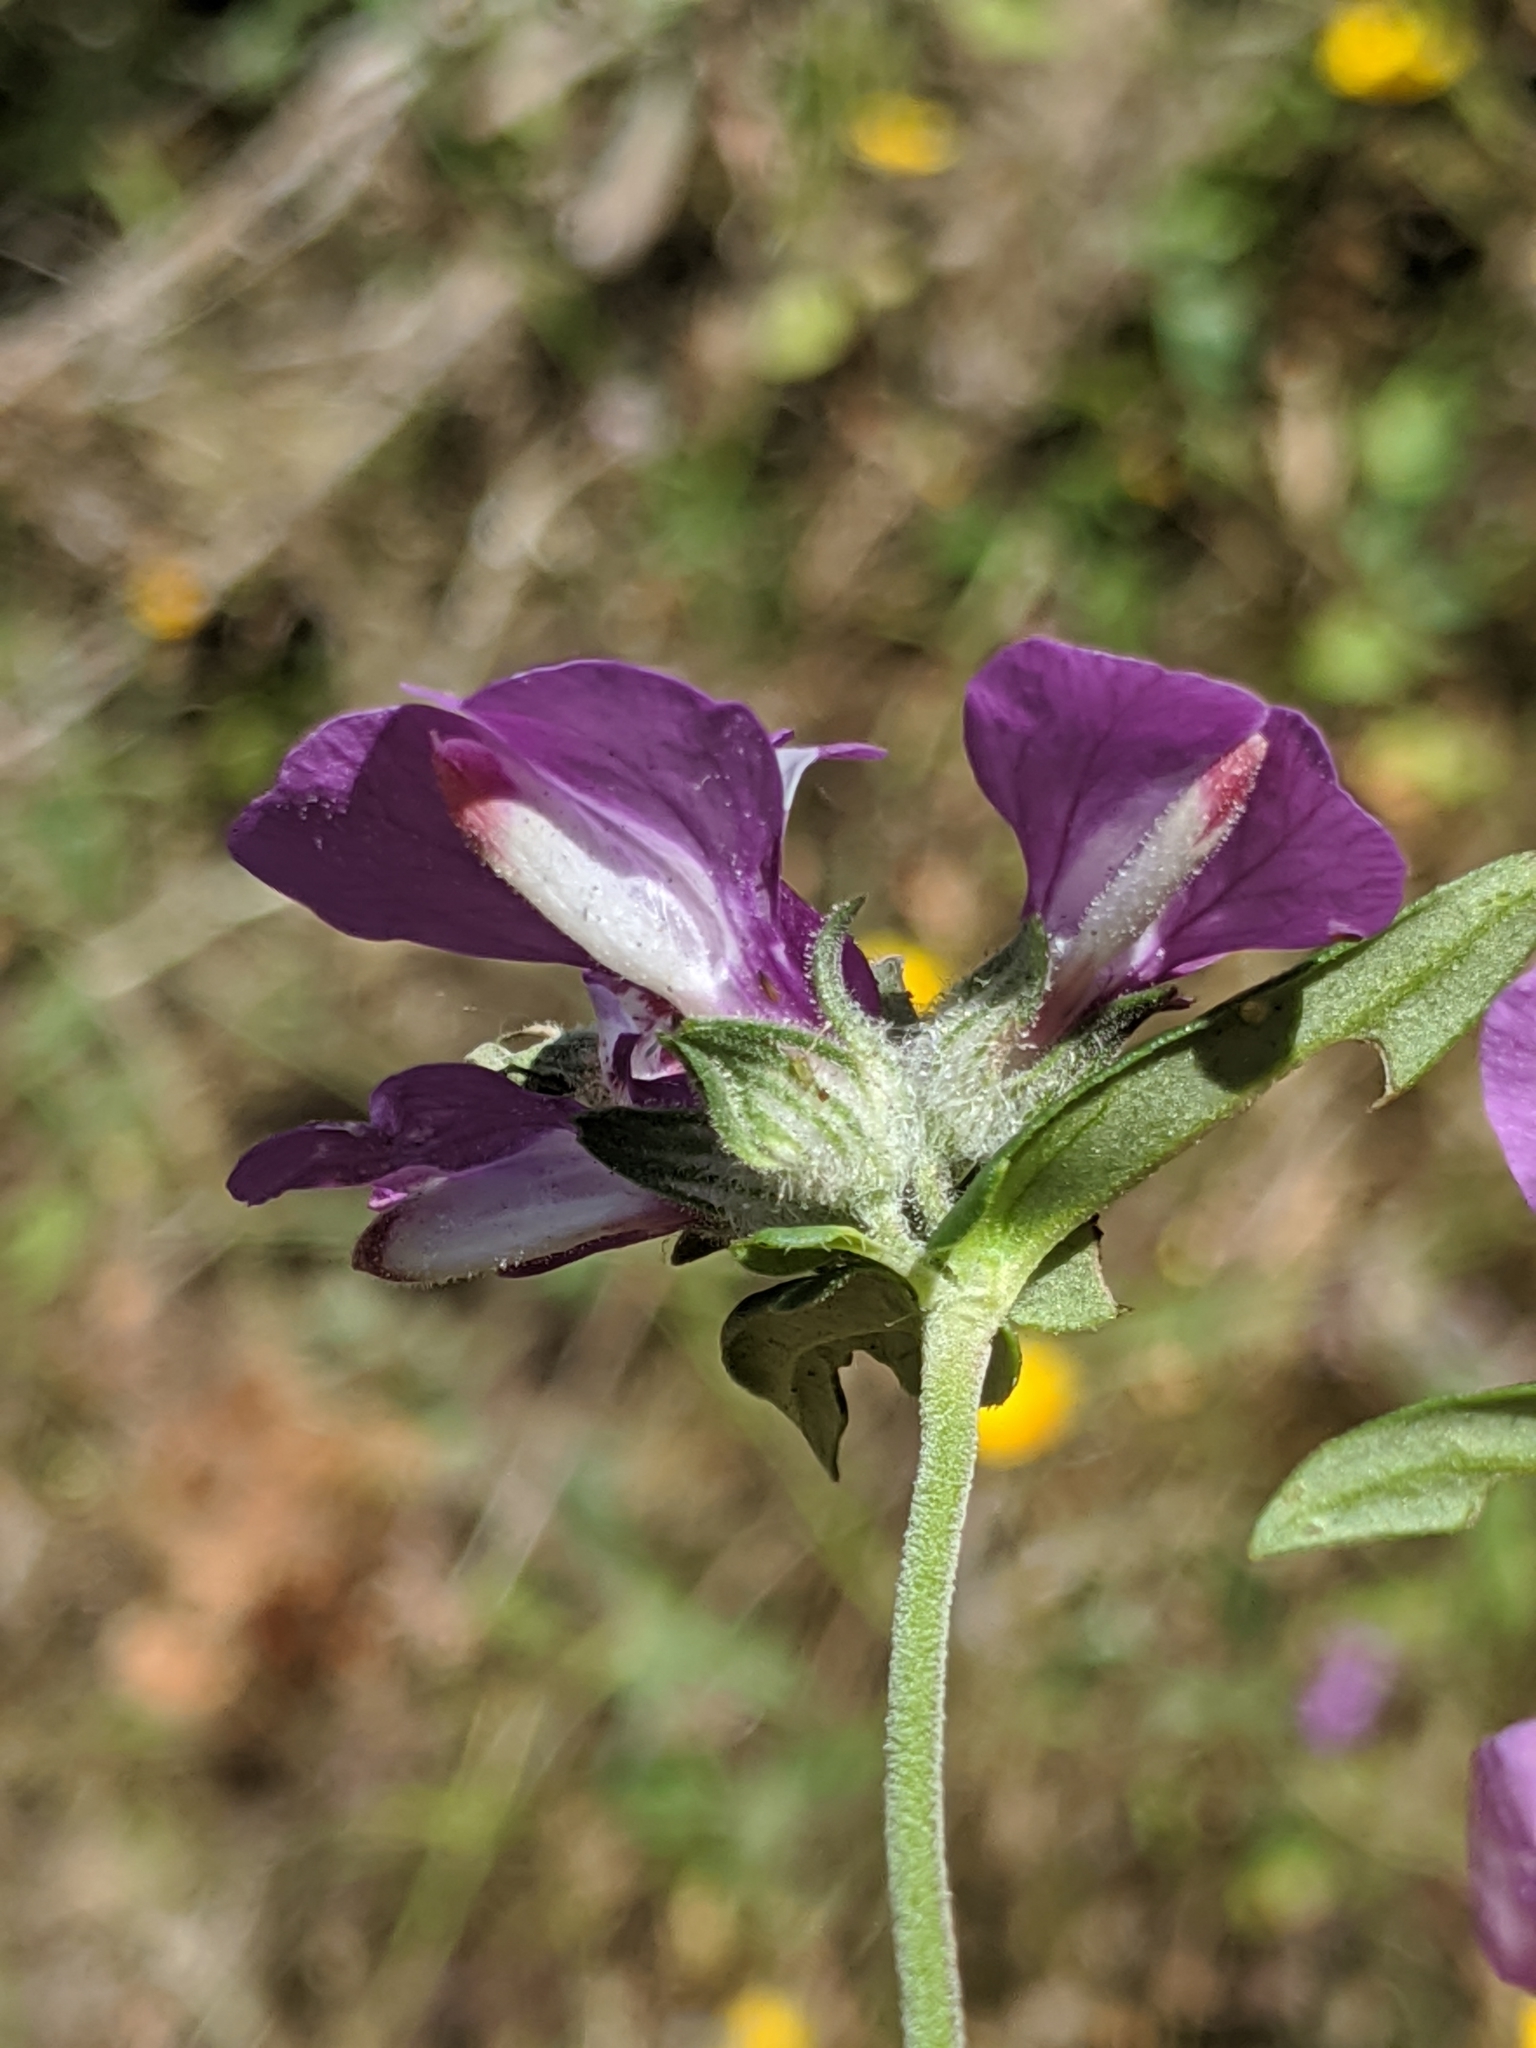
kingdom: Plantae
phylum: Tracheophyta
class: Magnoliopsida
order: Lamiales
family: Plantaginaceae
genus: Collinsia
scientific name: Collinsia heterophylla
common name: Chinese-houses
